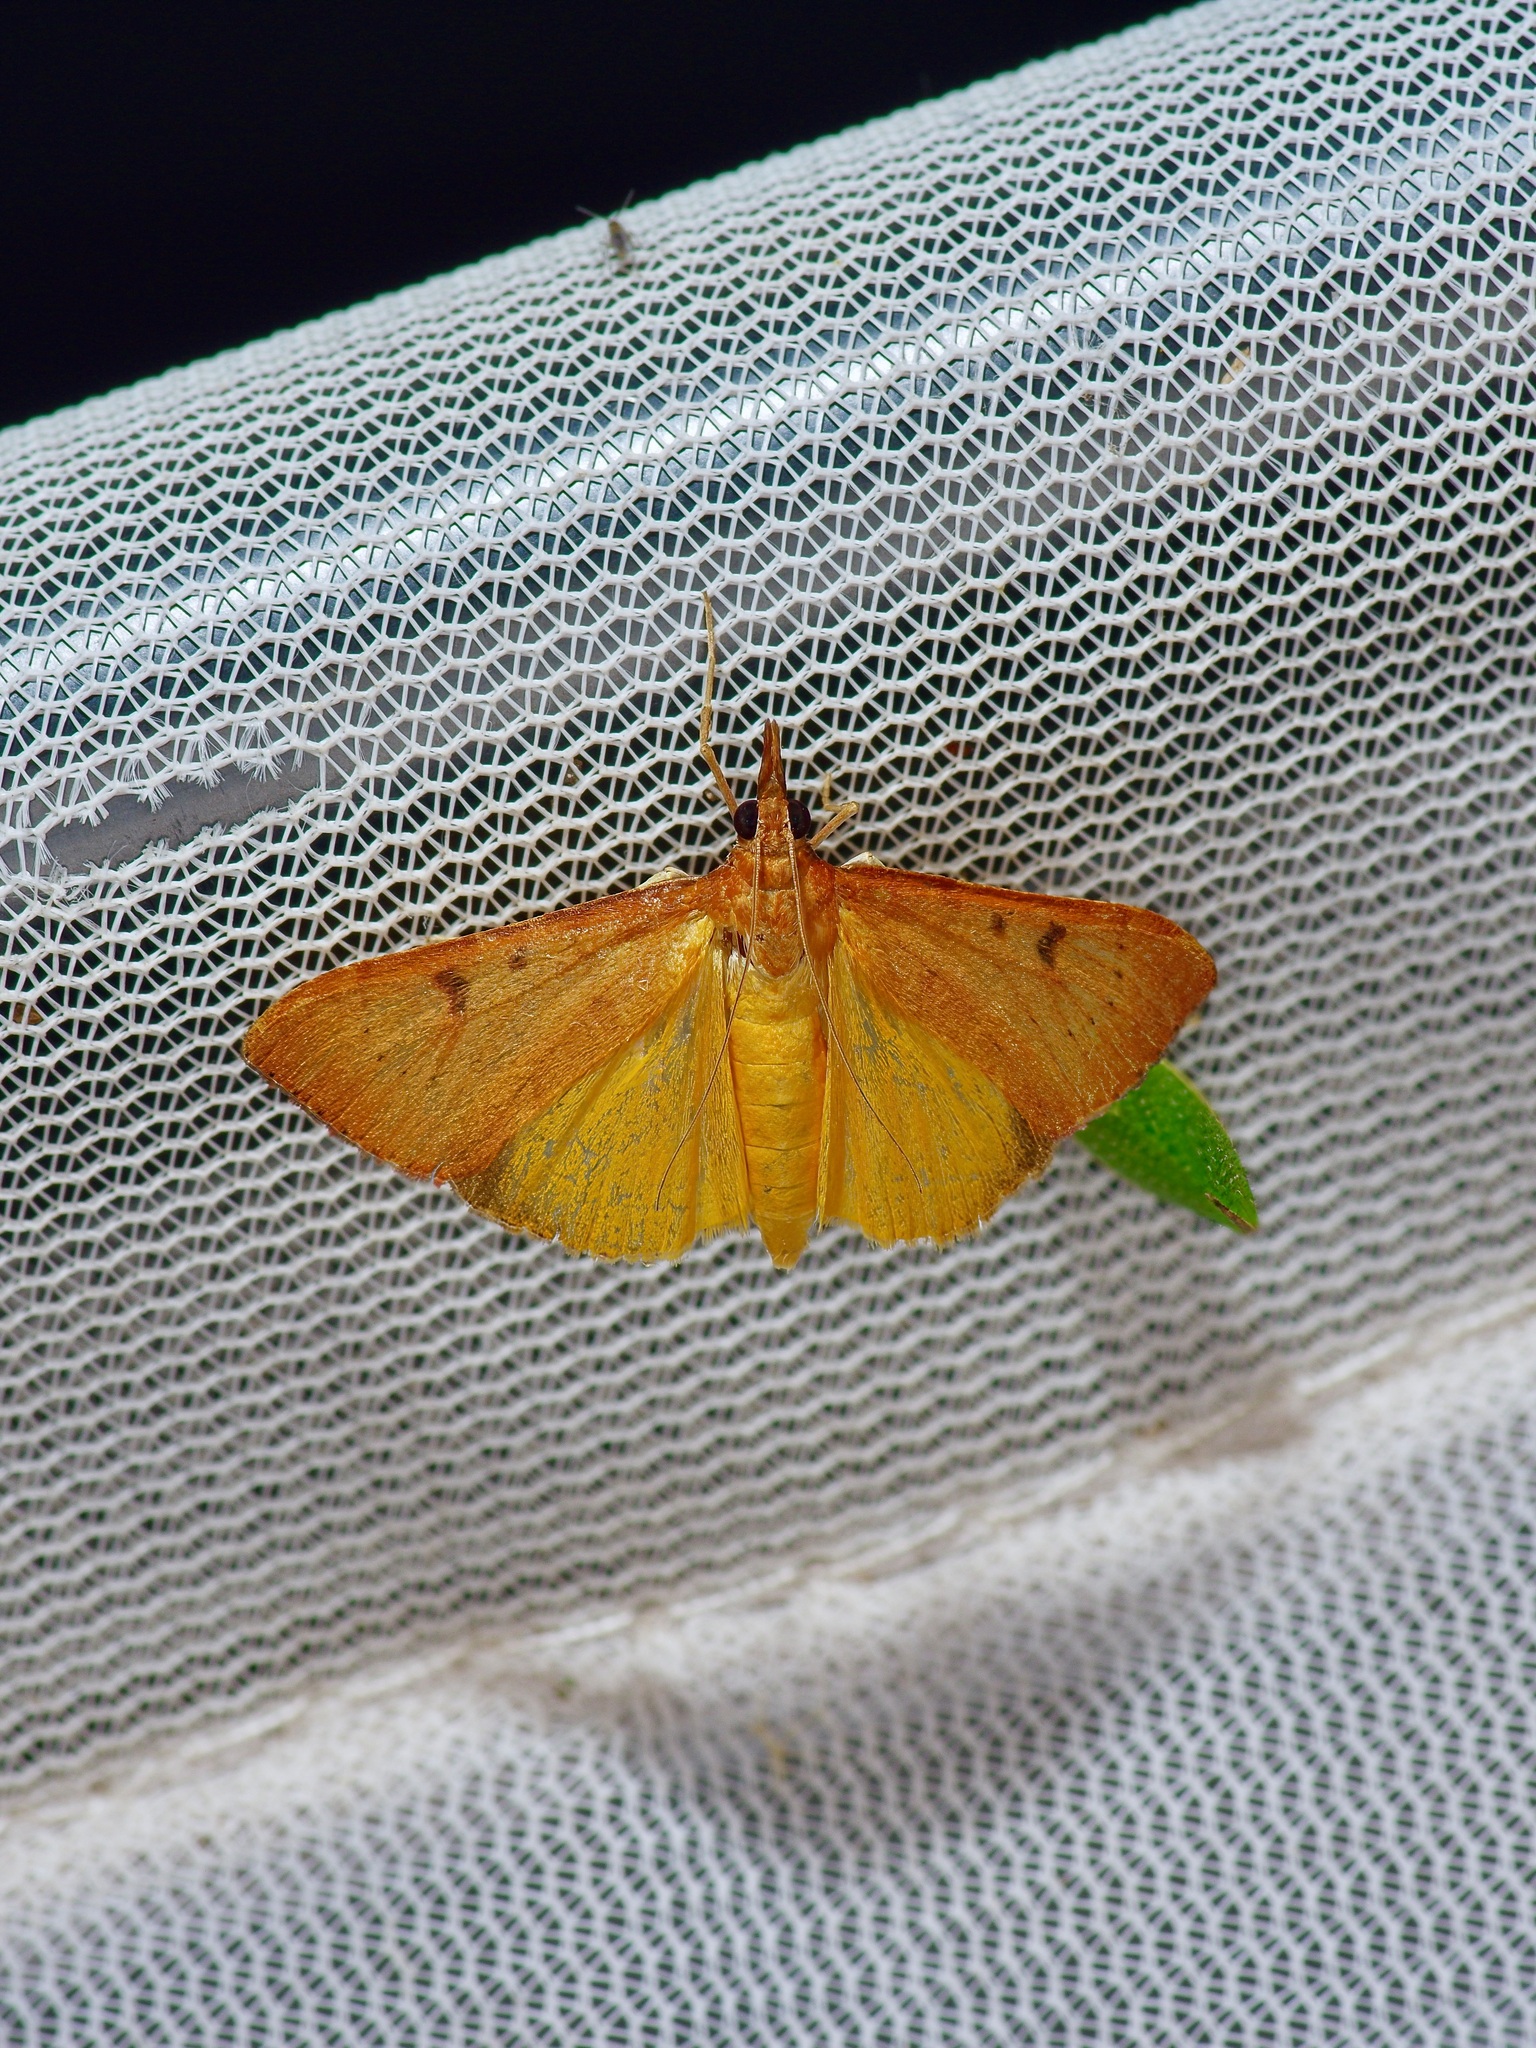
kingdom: Animalia
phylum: Arthropoda
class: Insecta
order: Lepidoptera
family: Crambidae
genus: Uresiphita
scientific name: Uresiphita reversalis
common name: Genista broom moth
